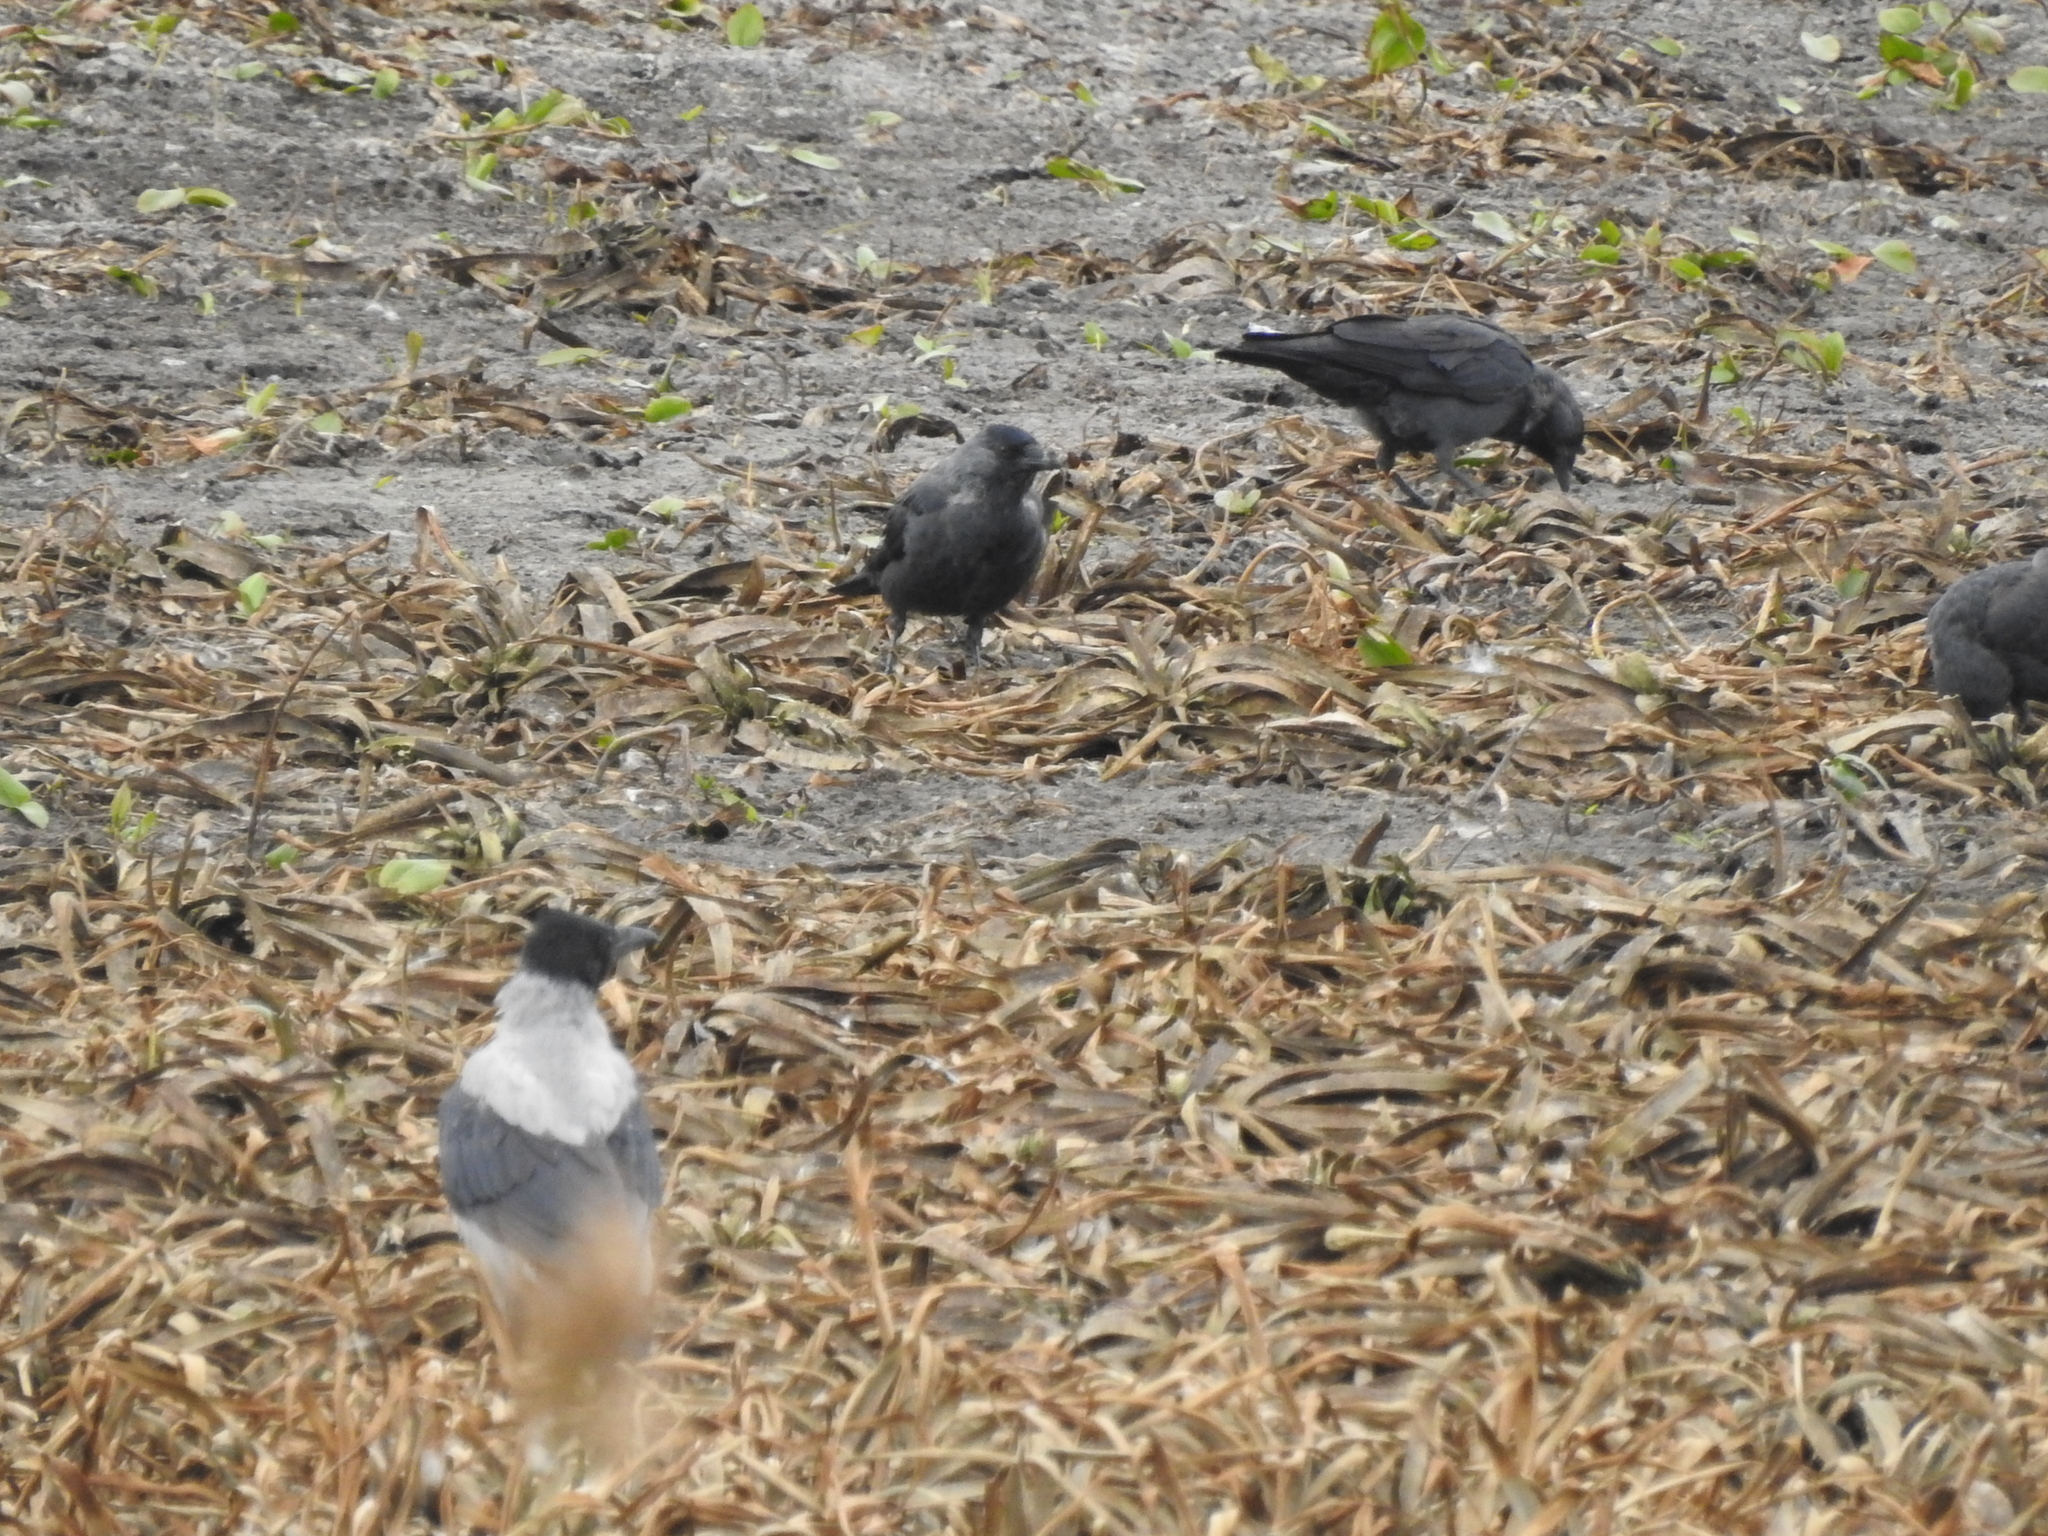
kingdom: Animalia
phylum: Chordata
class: Aves
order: Passeriformes
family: Corvidae
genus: Coloeus
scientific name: Coloeus monedula
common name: Western jackdaw
